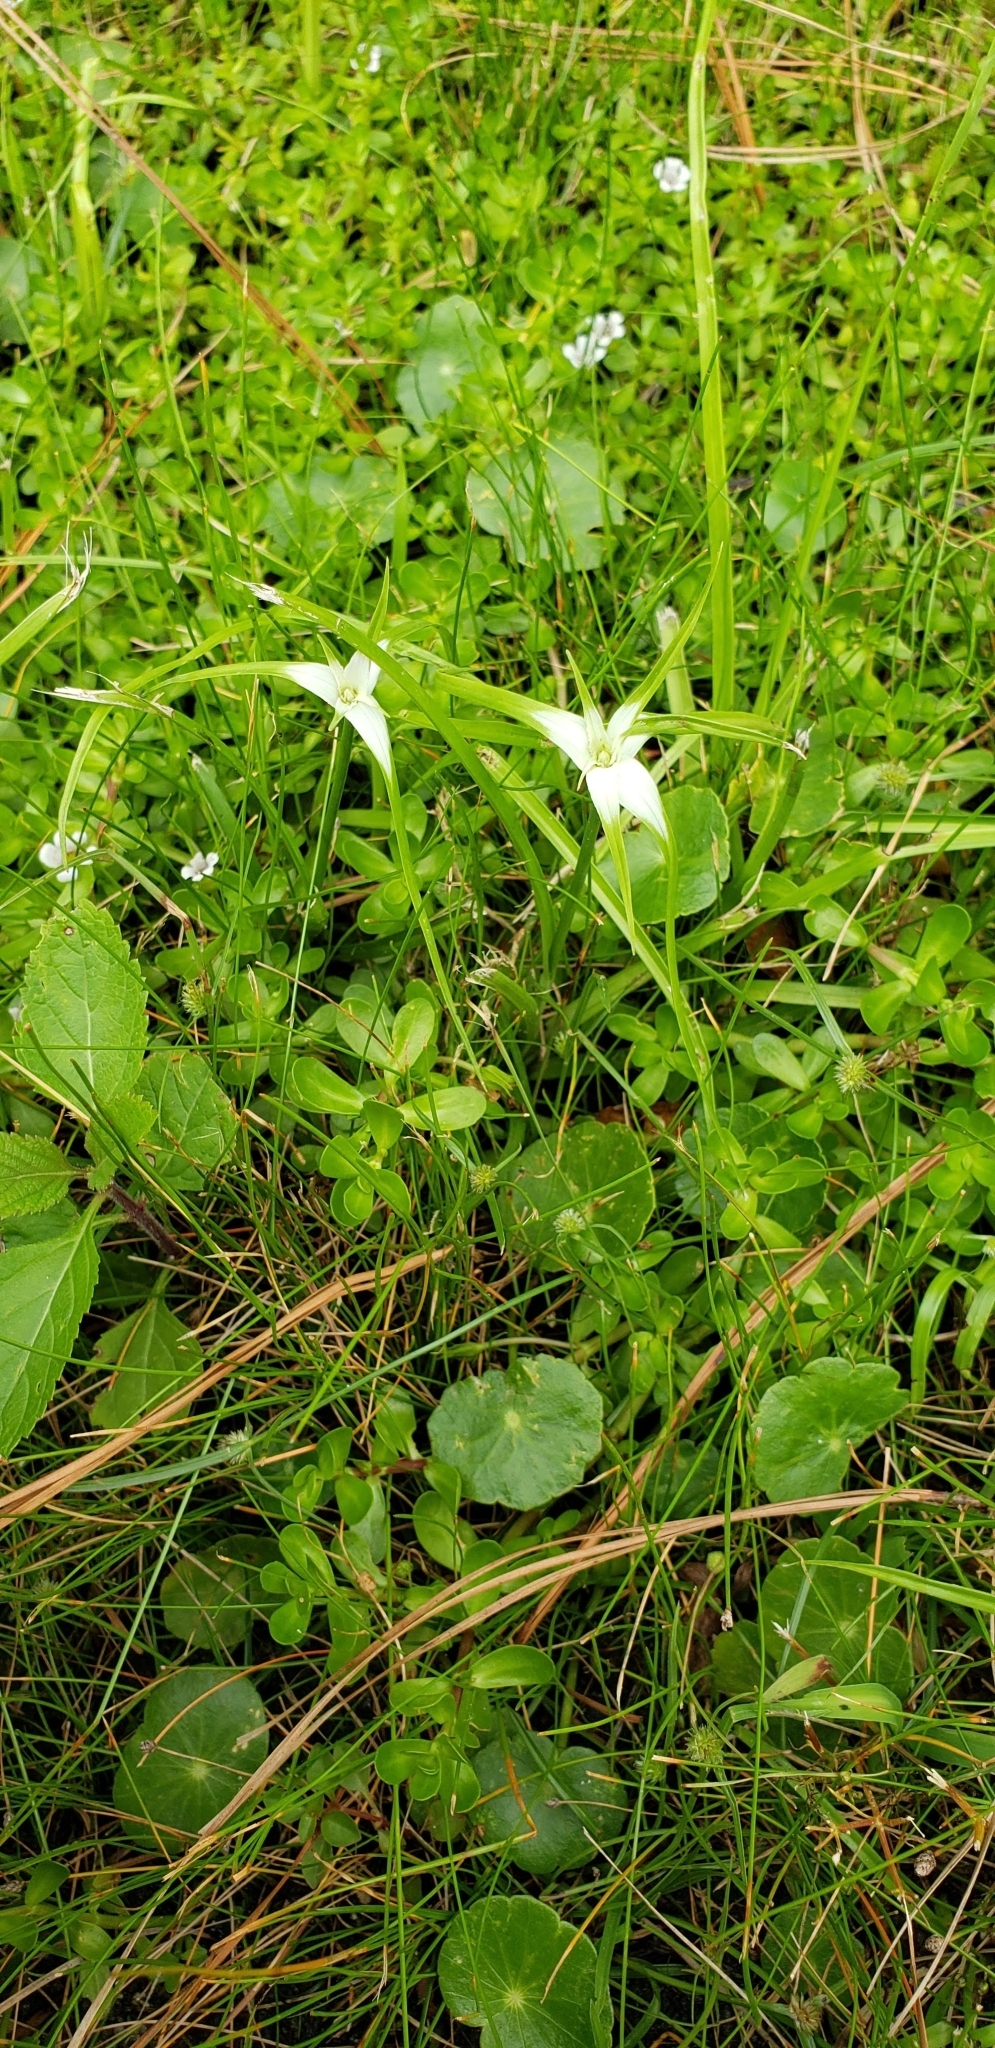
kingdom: Plantae
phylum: Tracheophyta
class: Liliopsida
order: Poales
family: Cyperaceae
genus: Rhynchospora
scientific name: Rhynchospora colorata
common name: Star sedge
